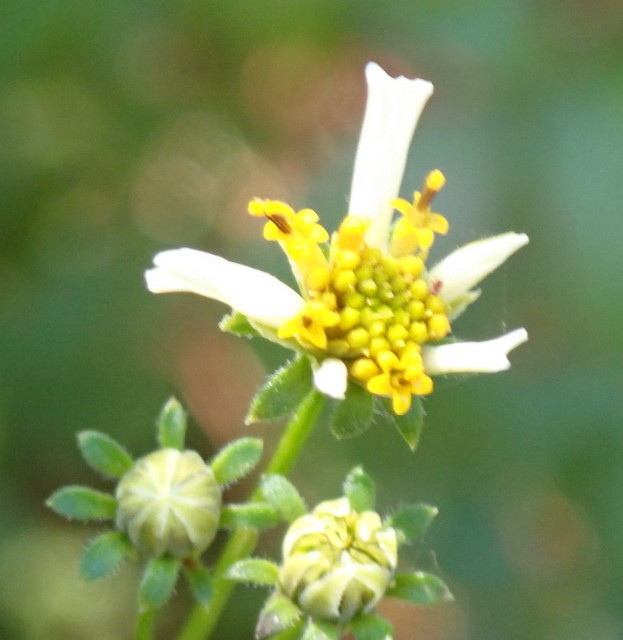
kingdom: Plantae
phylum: Tracheophyta
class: Magnoliopsida
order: Asterales
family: Asteraceae
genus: Bidens
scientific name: Bidens alba
